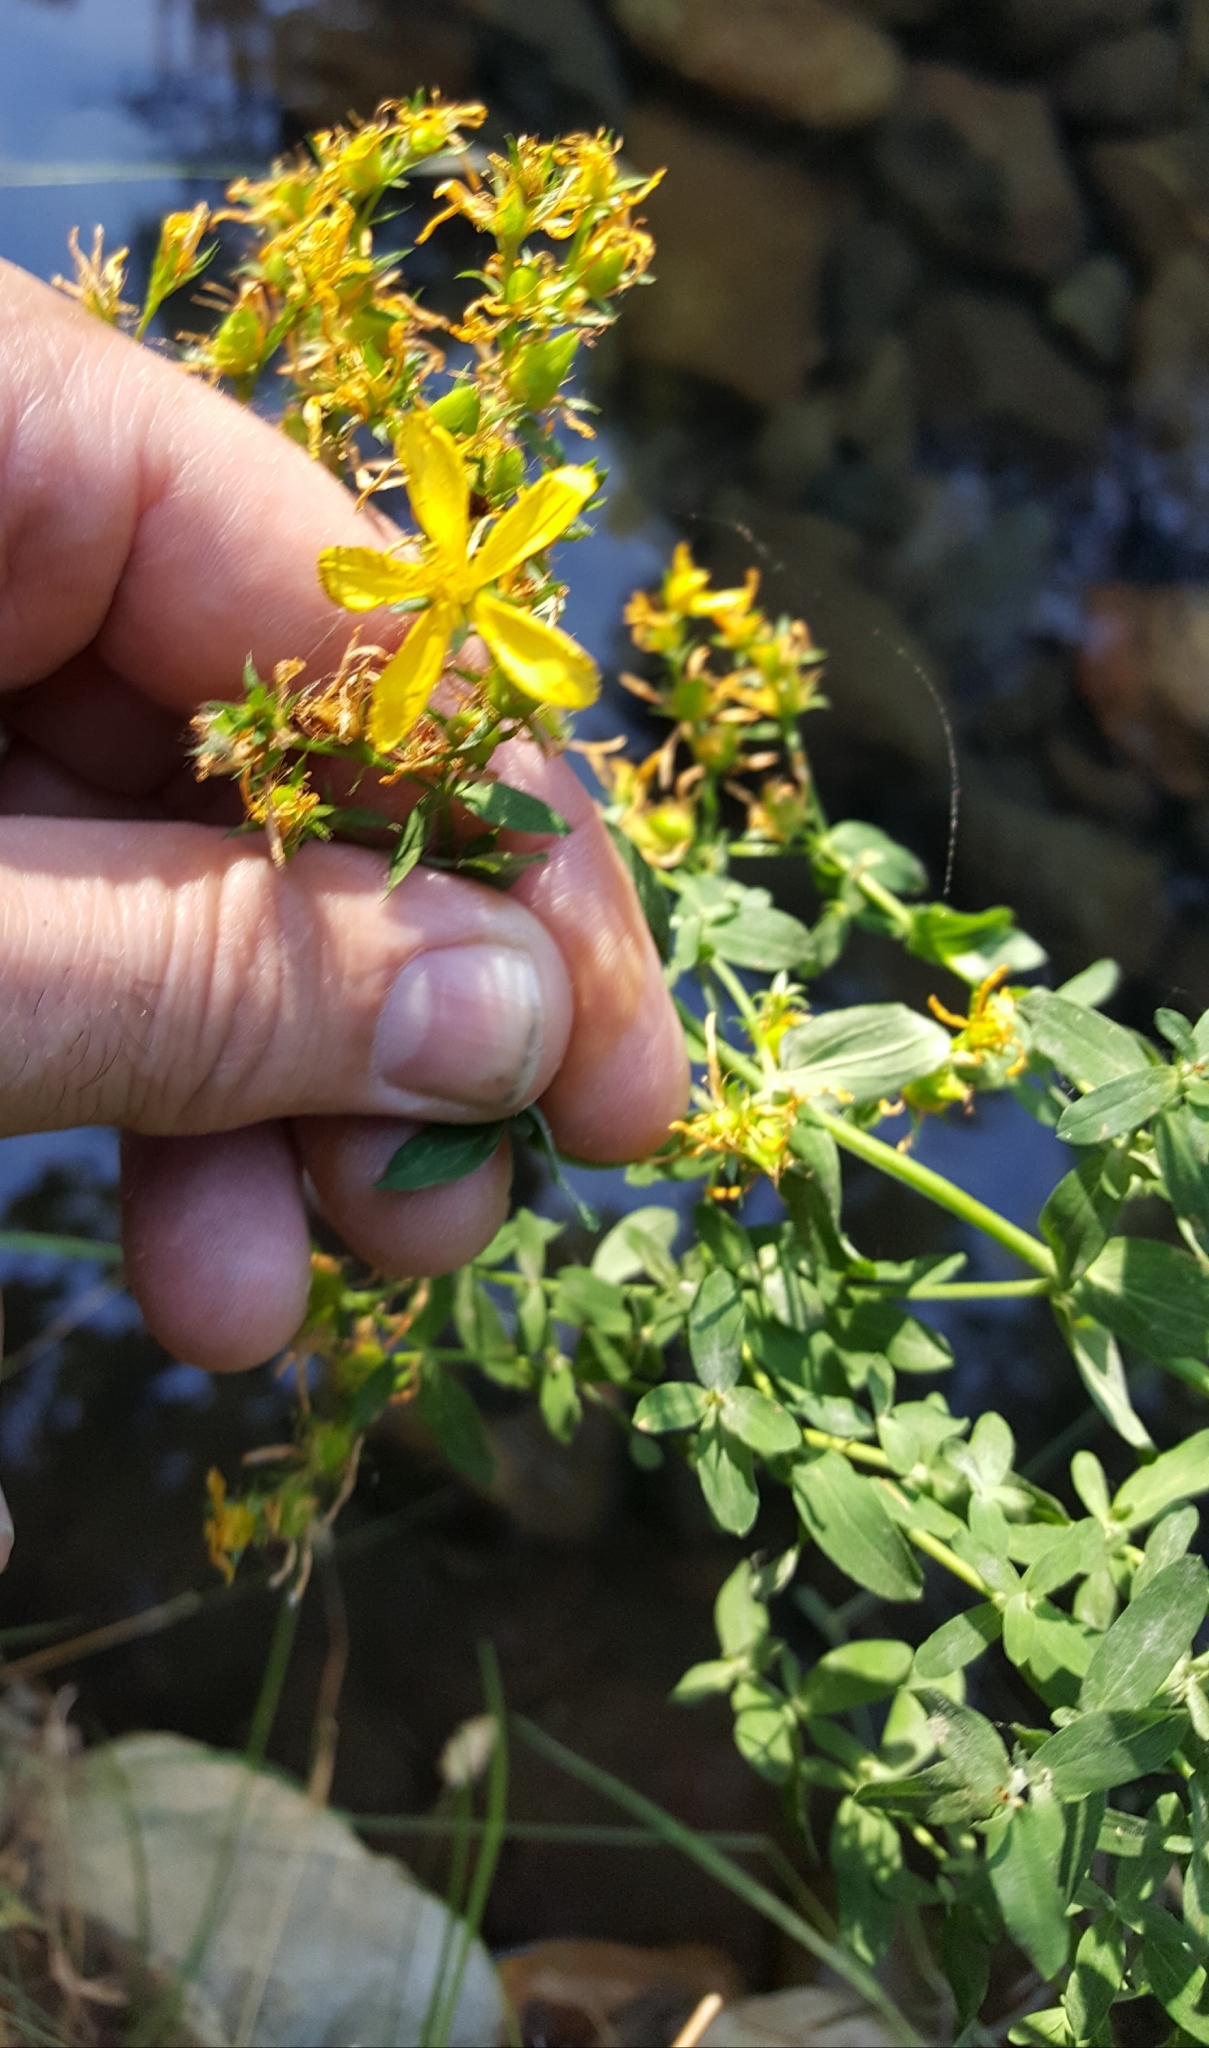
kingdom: Plantae
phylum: Tracheophyta
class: Magnoliopsida
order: Malpighiales
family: Hypericaceae
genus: Hypericum
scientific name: Hypericum perforatum
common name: Common st. johnswort
